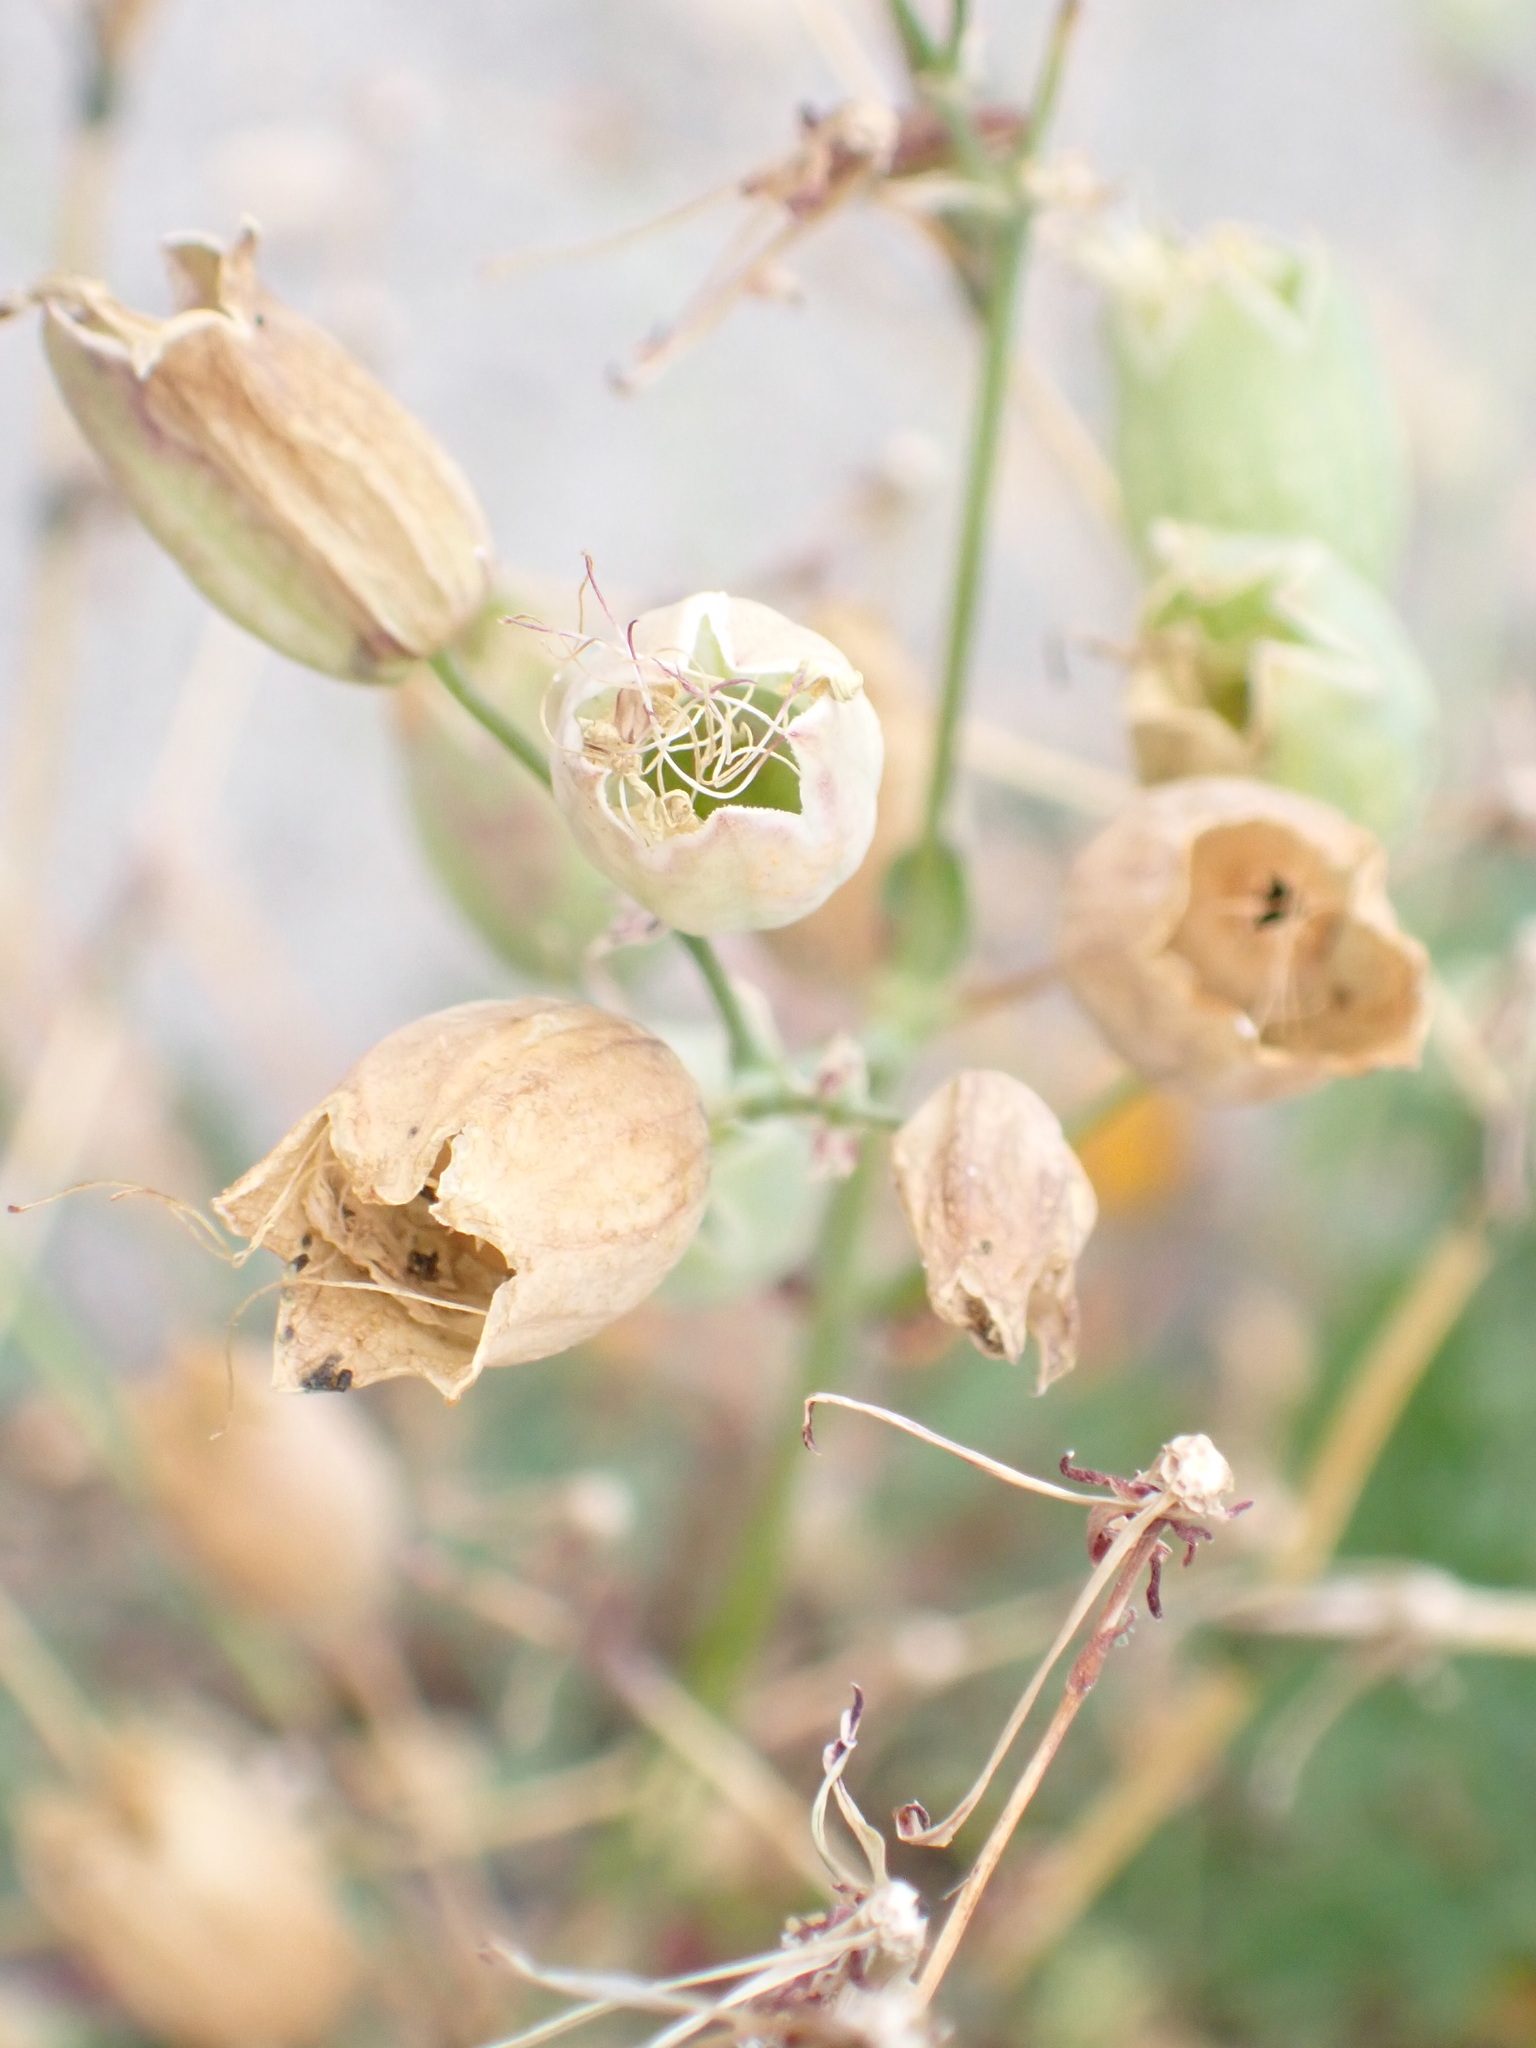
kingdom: Plantae
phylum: Tracheophyta
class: Magnoliopsida
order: Caryophyllales
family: Caryophyllaceae
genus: Silene
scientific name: Silene vulgaris
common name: Bladder campion
